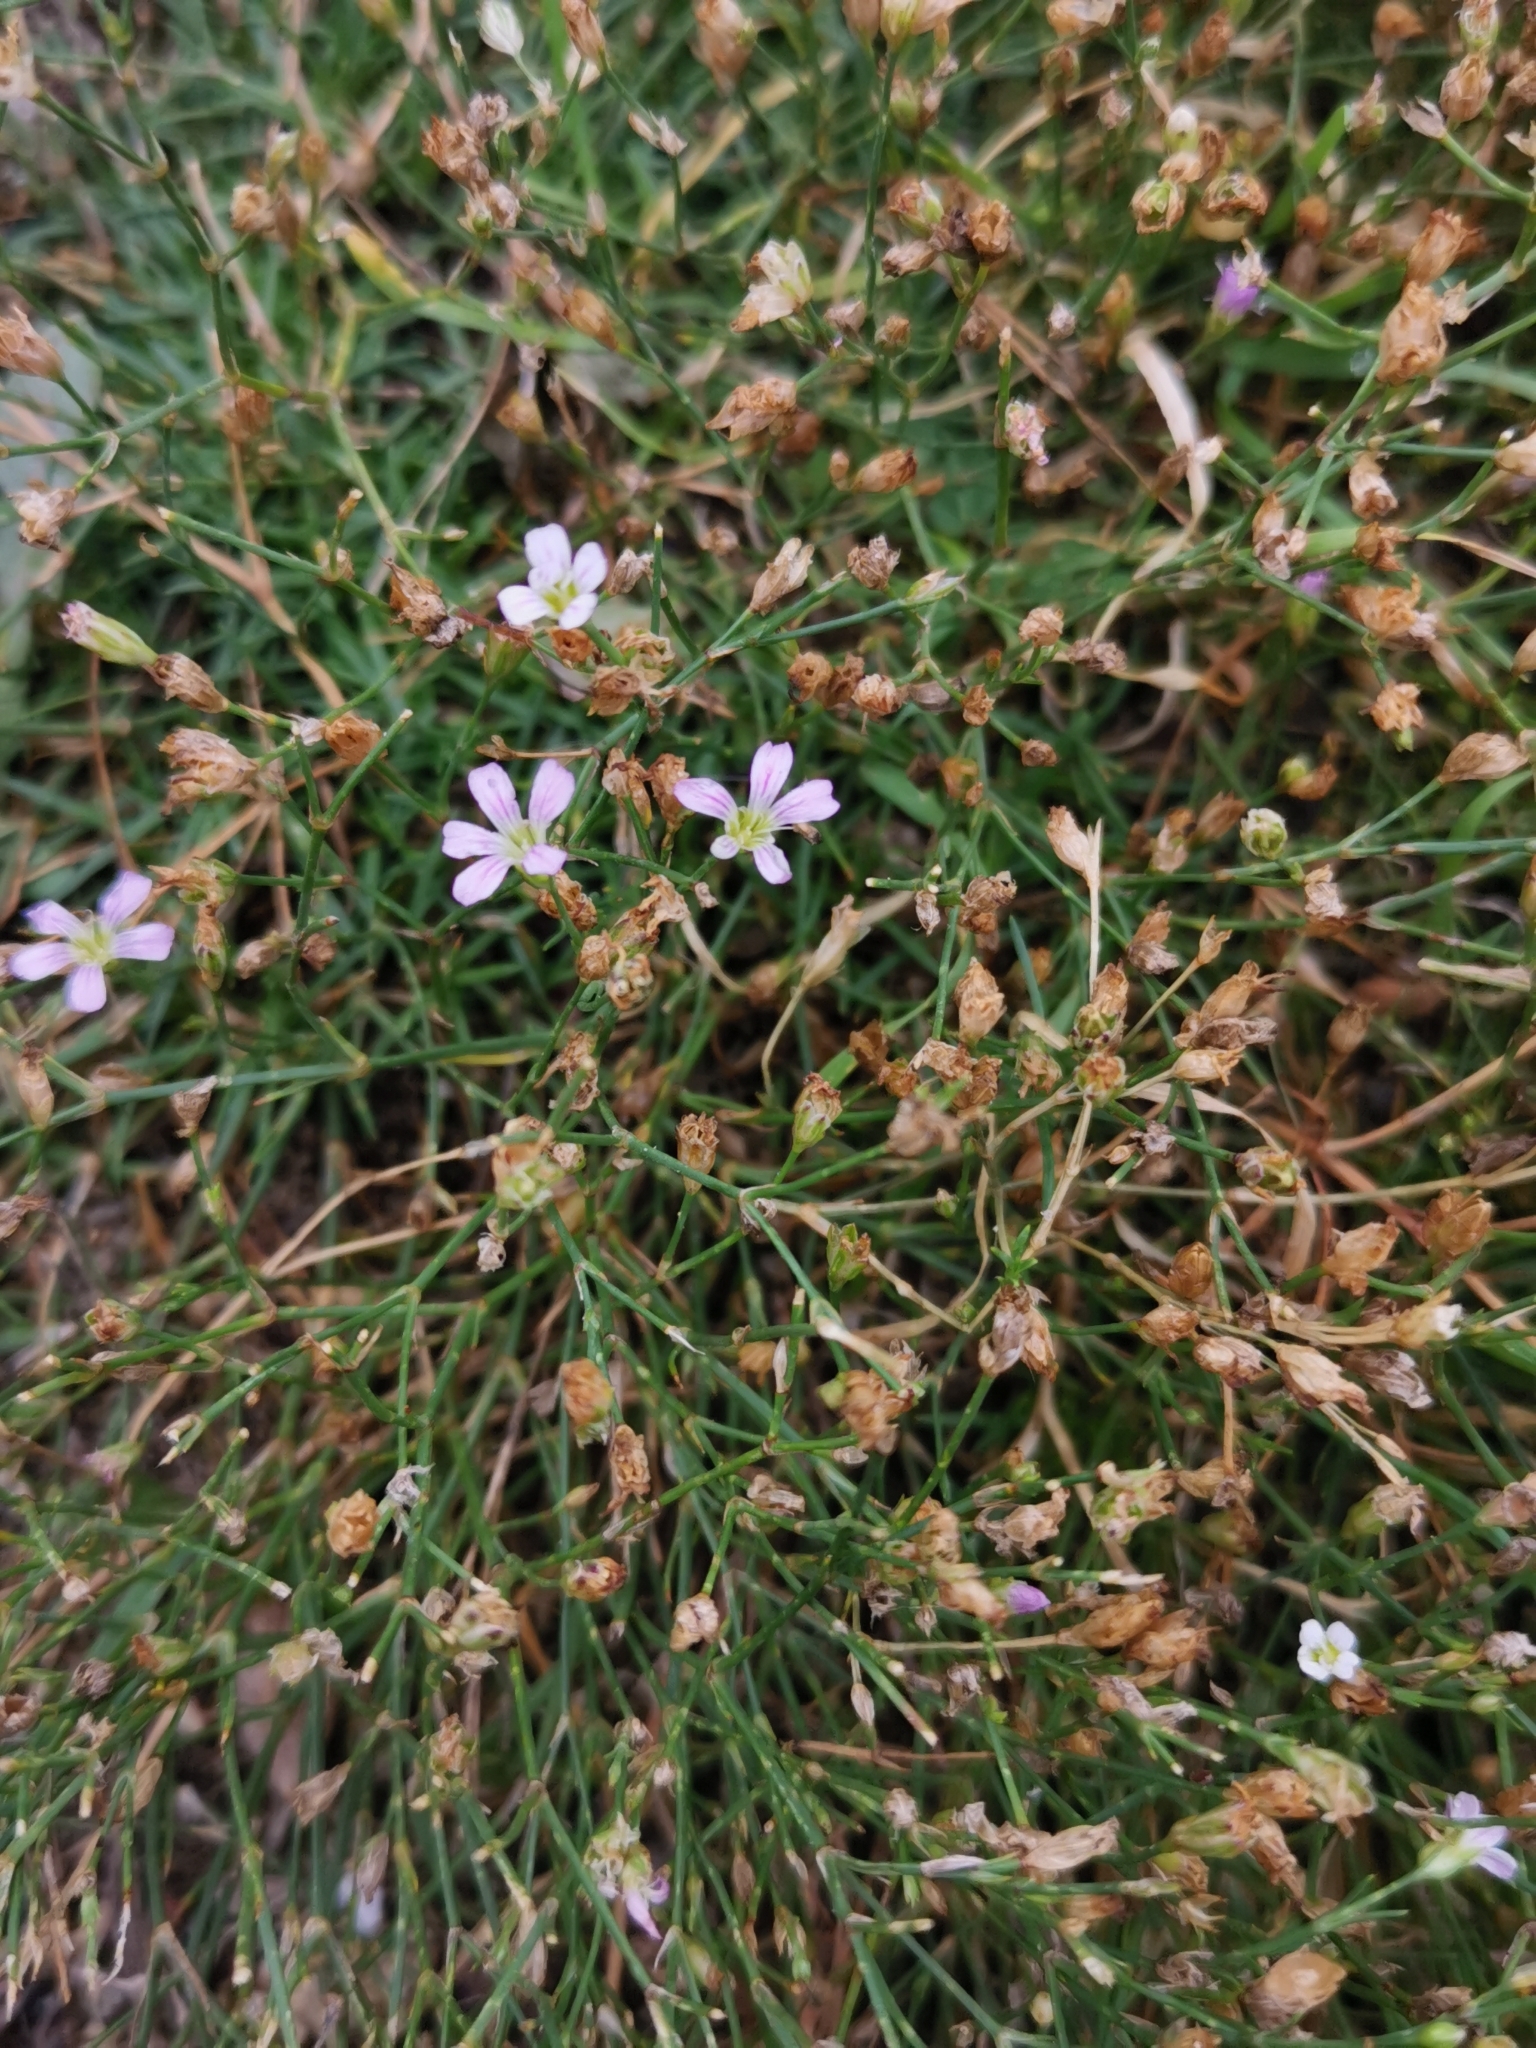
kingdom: Plantae
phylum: Tracheophyta
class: Magnoliopsida
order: Caryophyllales
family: Caryophyllaceae
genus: Petrorhagia
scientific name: Petrorhagia saxifraga
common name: Tunicflower
